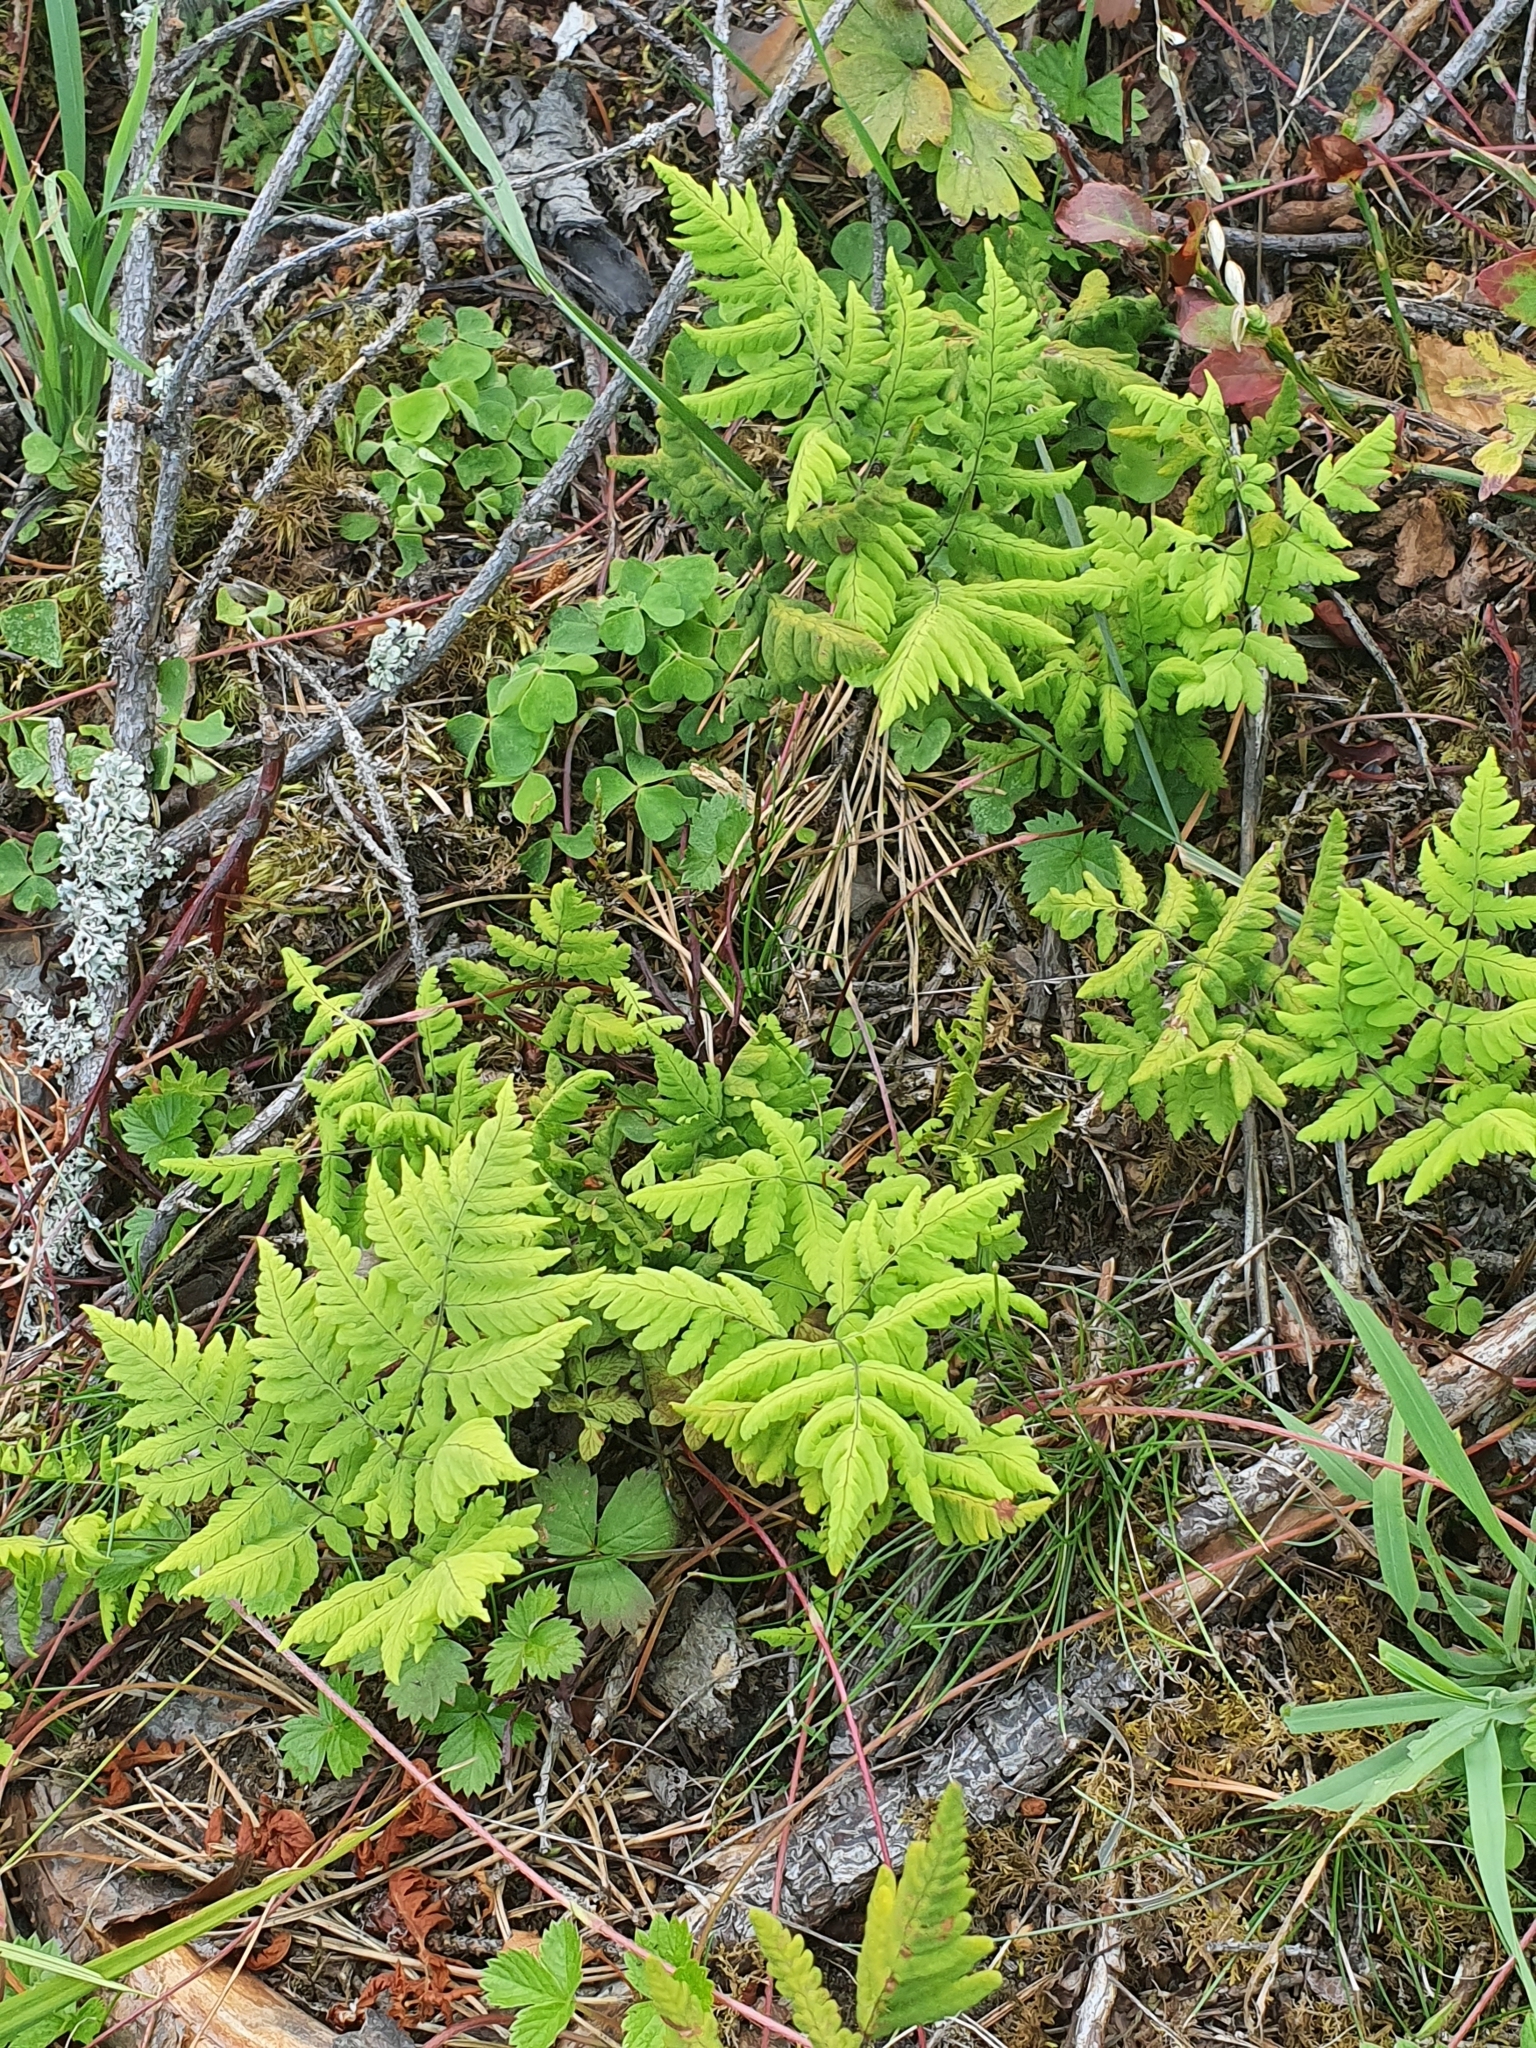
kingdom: Plantae
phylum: Tracheophyta
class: Polypodiopsida
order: Polypodiales
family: Cystopteridaceae
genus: Gymnocarpium
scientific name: Gymnocarpium dryopteris
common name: Oak fern
